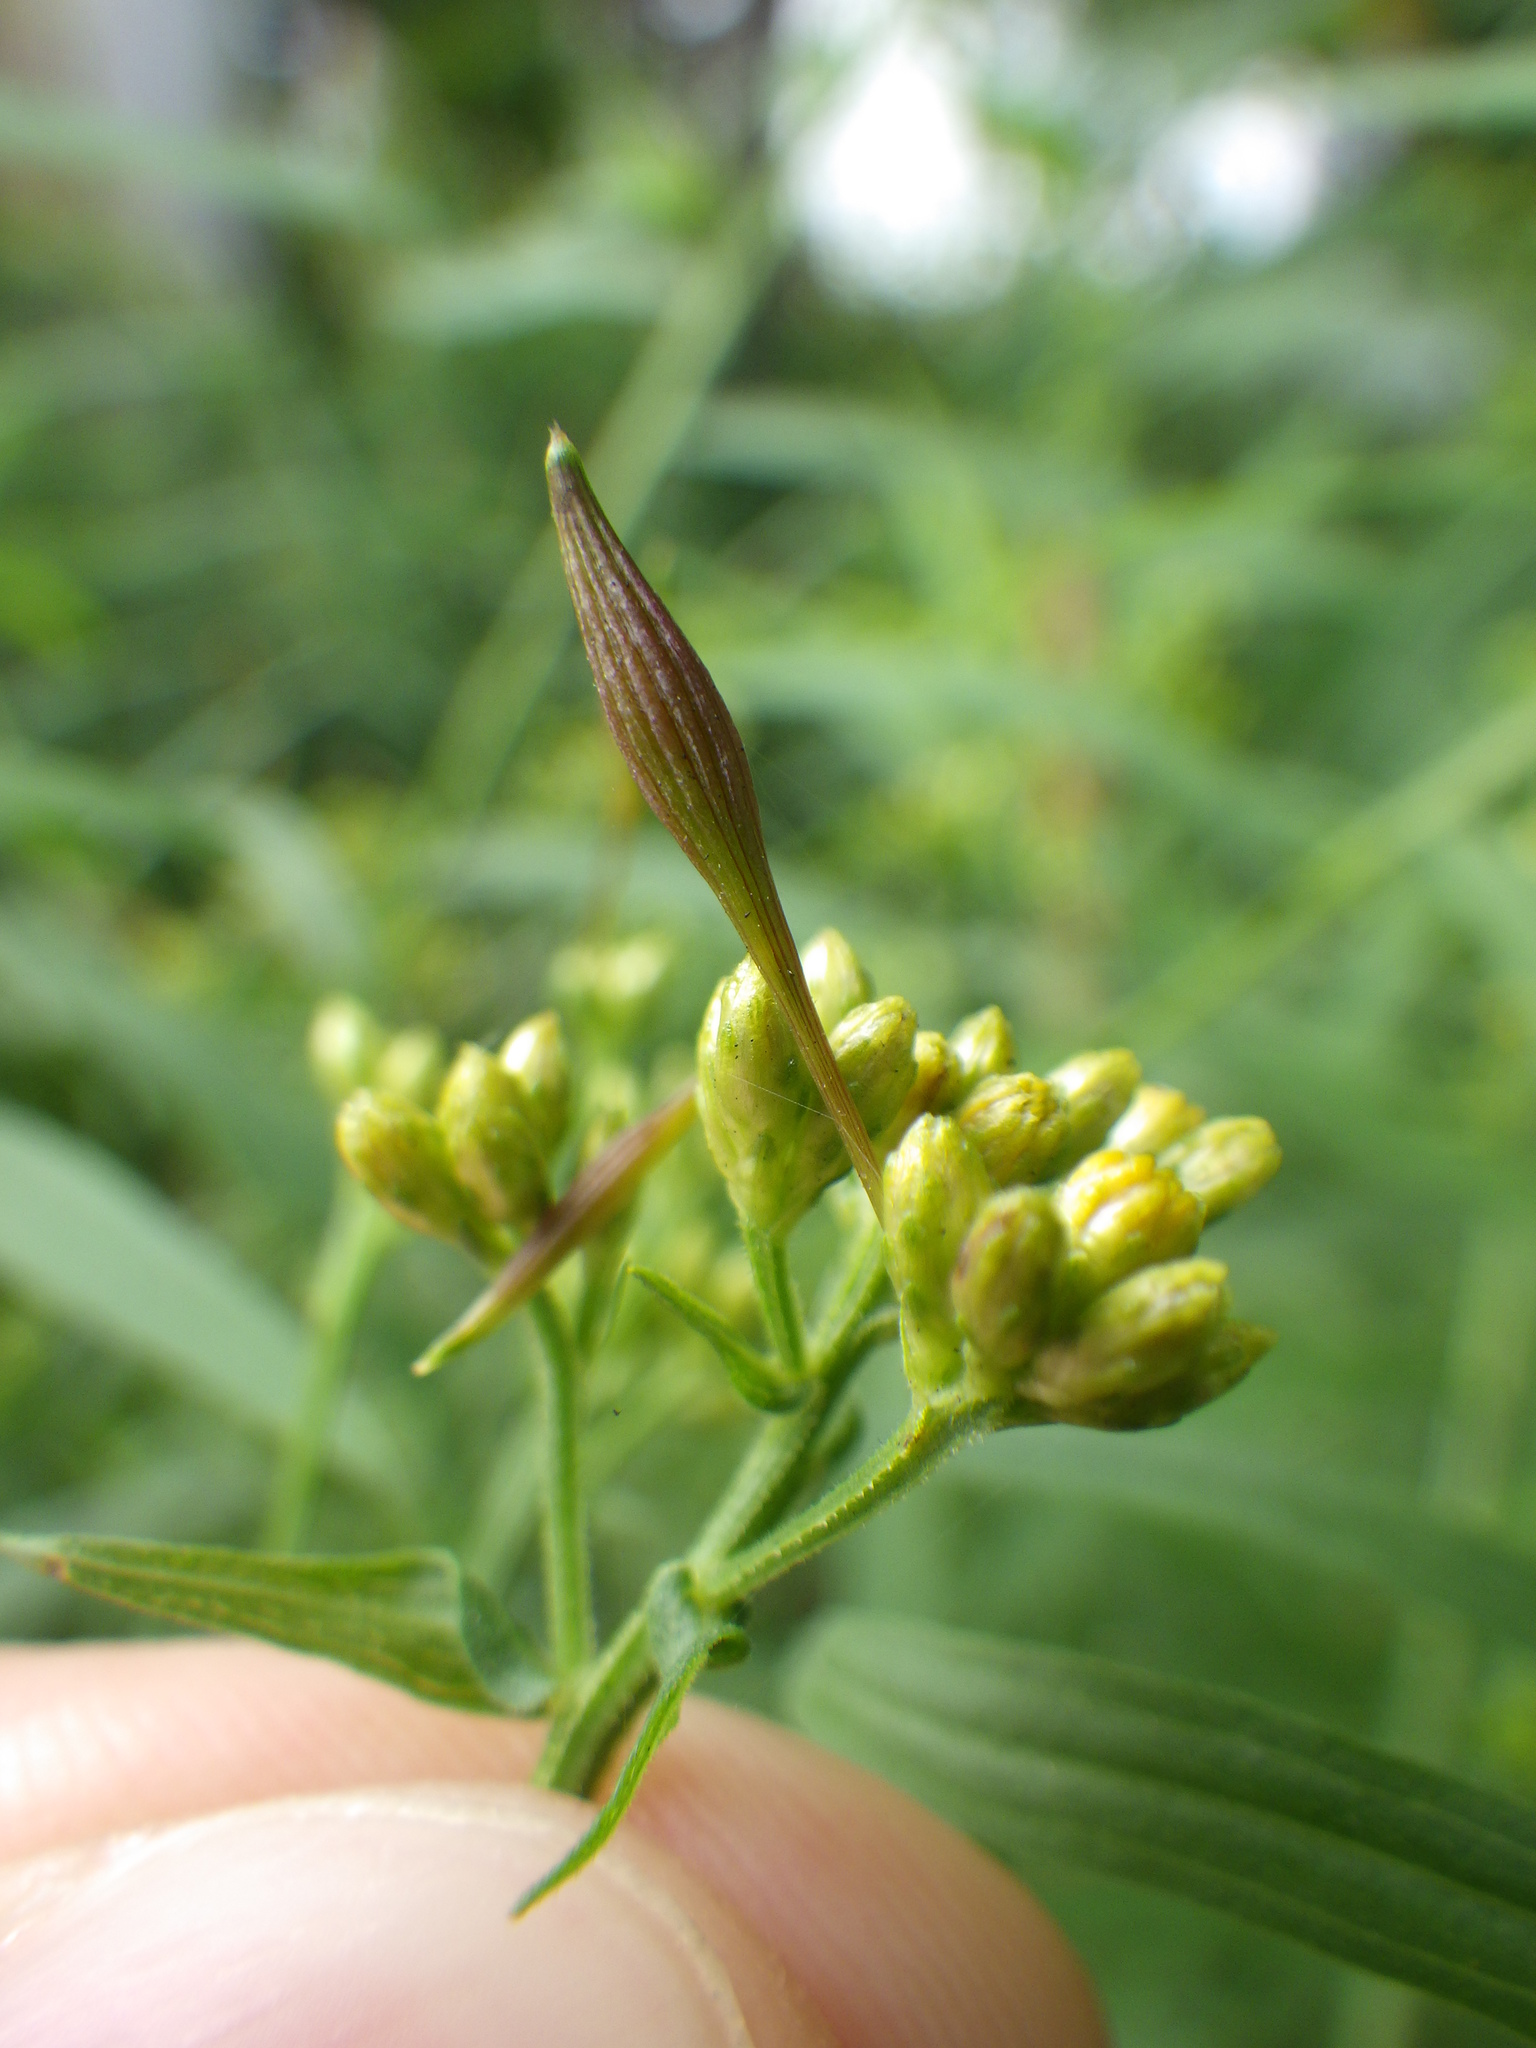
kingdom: Animalia
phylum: Arthropoda
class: Insecta
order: Diptera
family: Cecidomyiidae
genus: Rhopalomyia
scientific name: Rhopalomyia pedicellata
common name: Goldentop pedicellate gall midge
